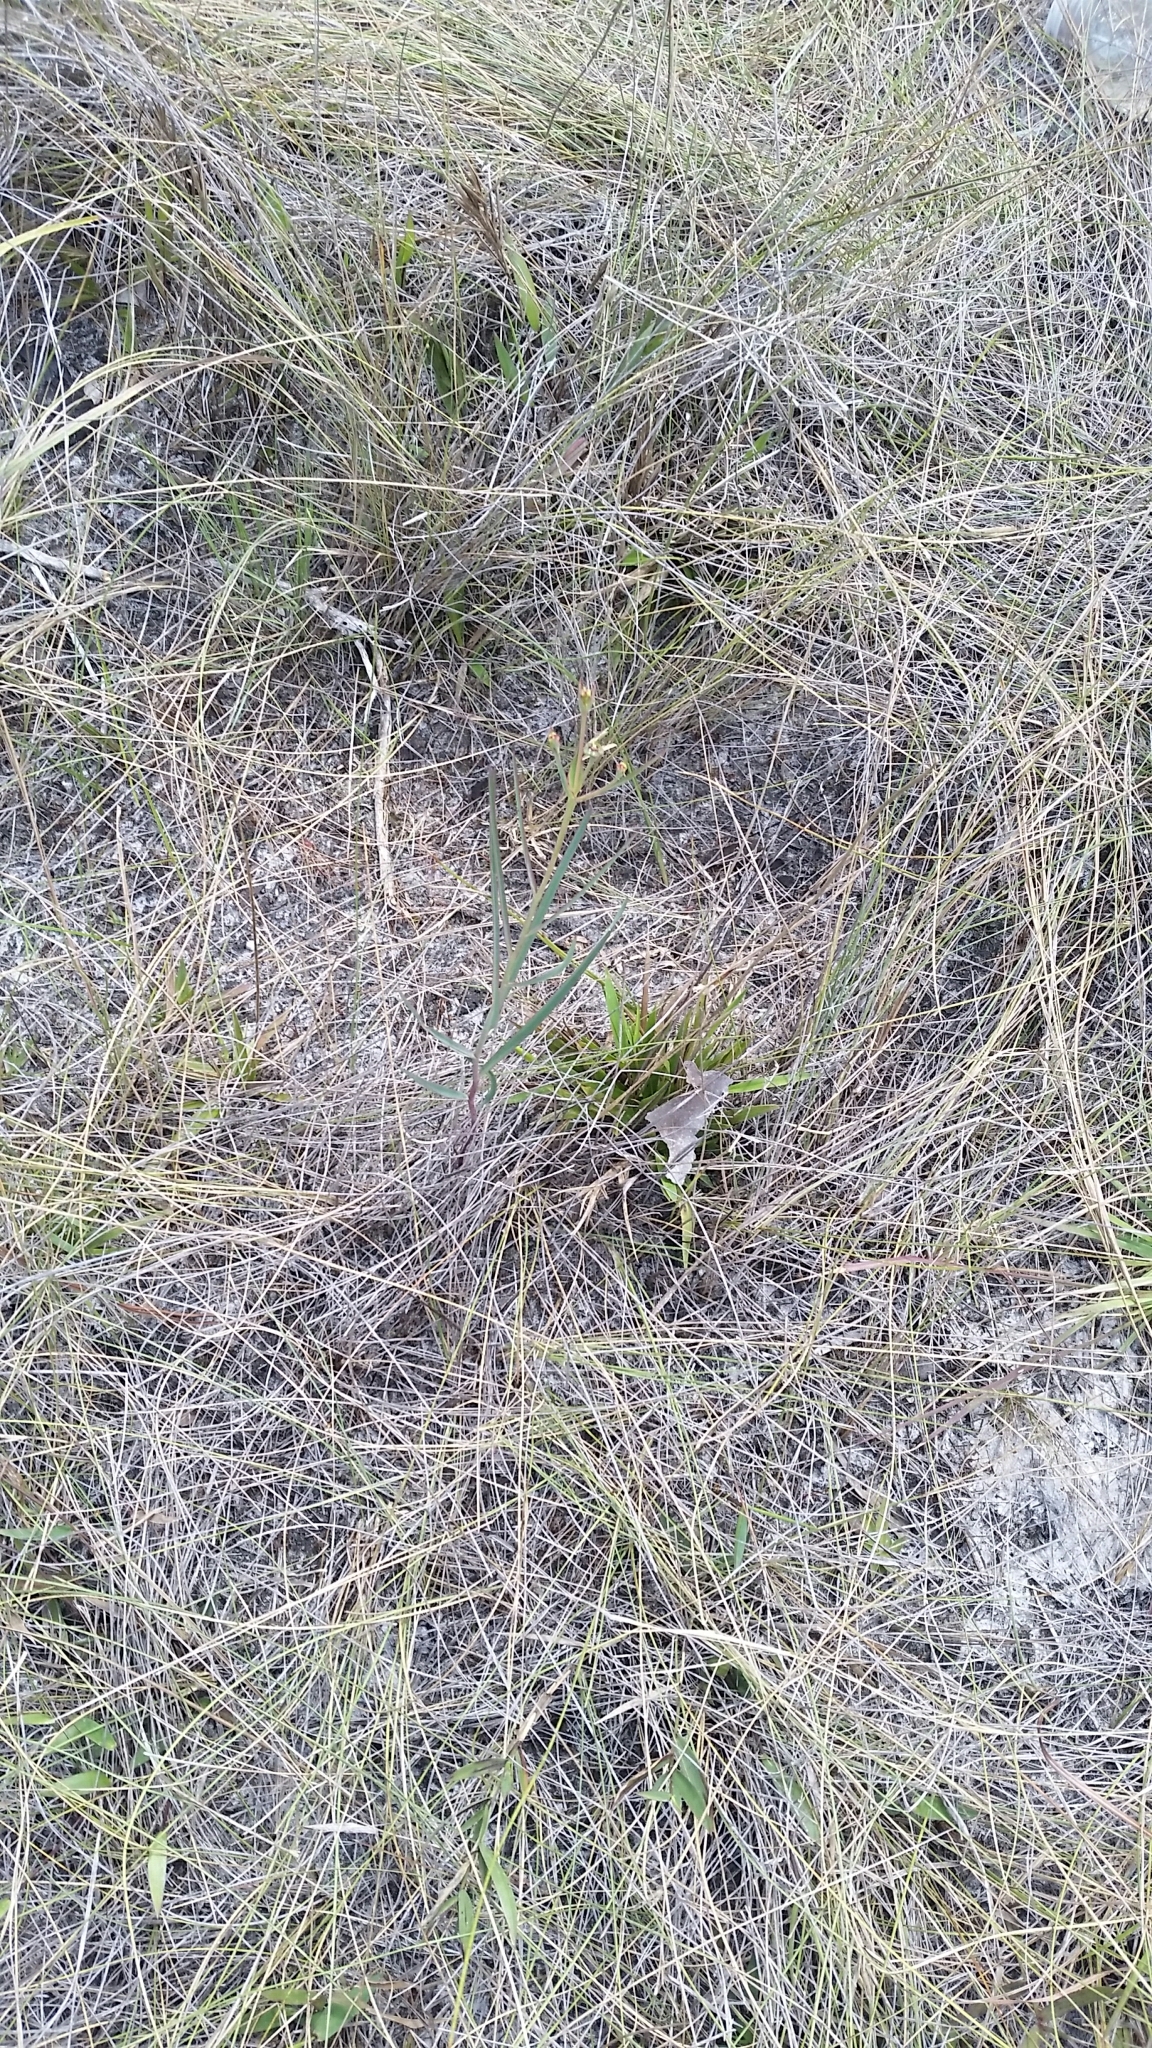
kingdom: Plantae
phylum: Tracheophyta
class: Magnoliopsida
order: Malpighiales
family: Euphorbiaceae
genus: Euphorbia
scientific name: Euphorbia inundata
